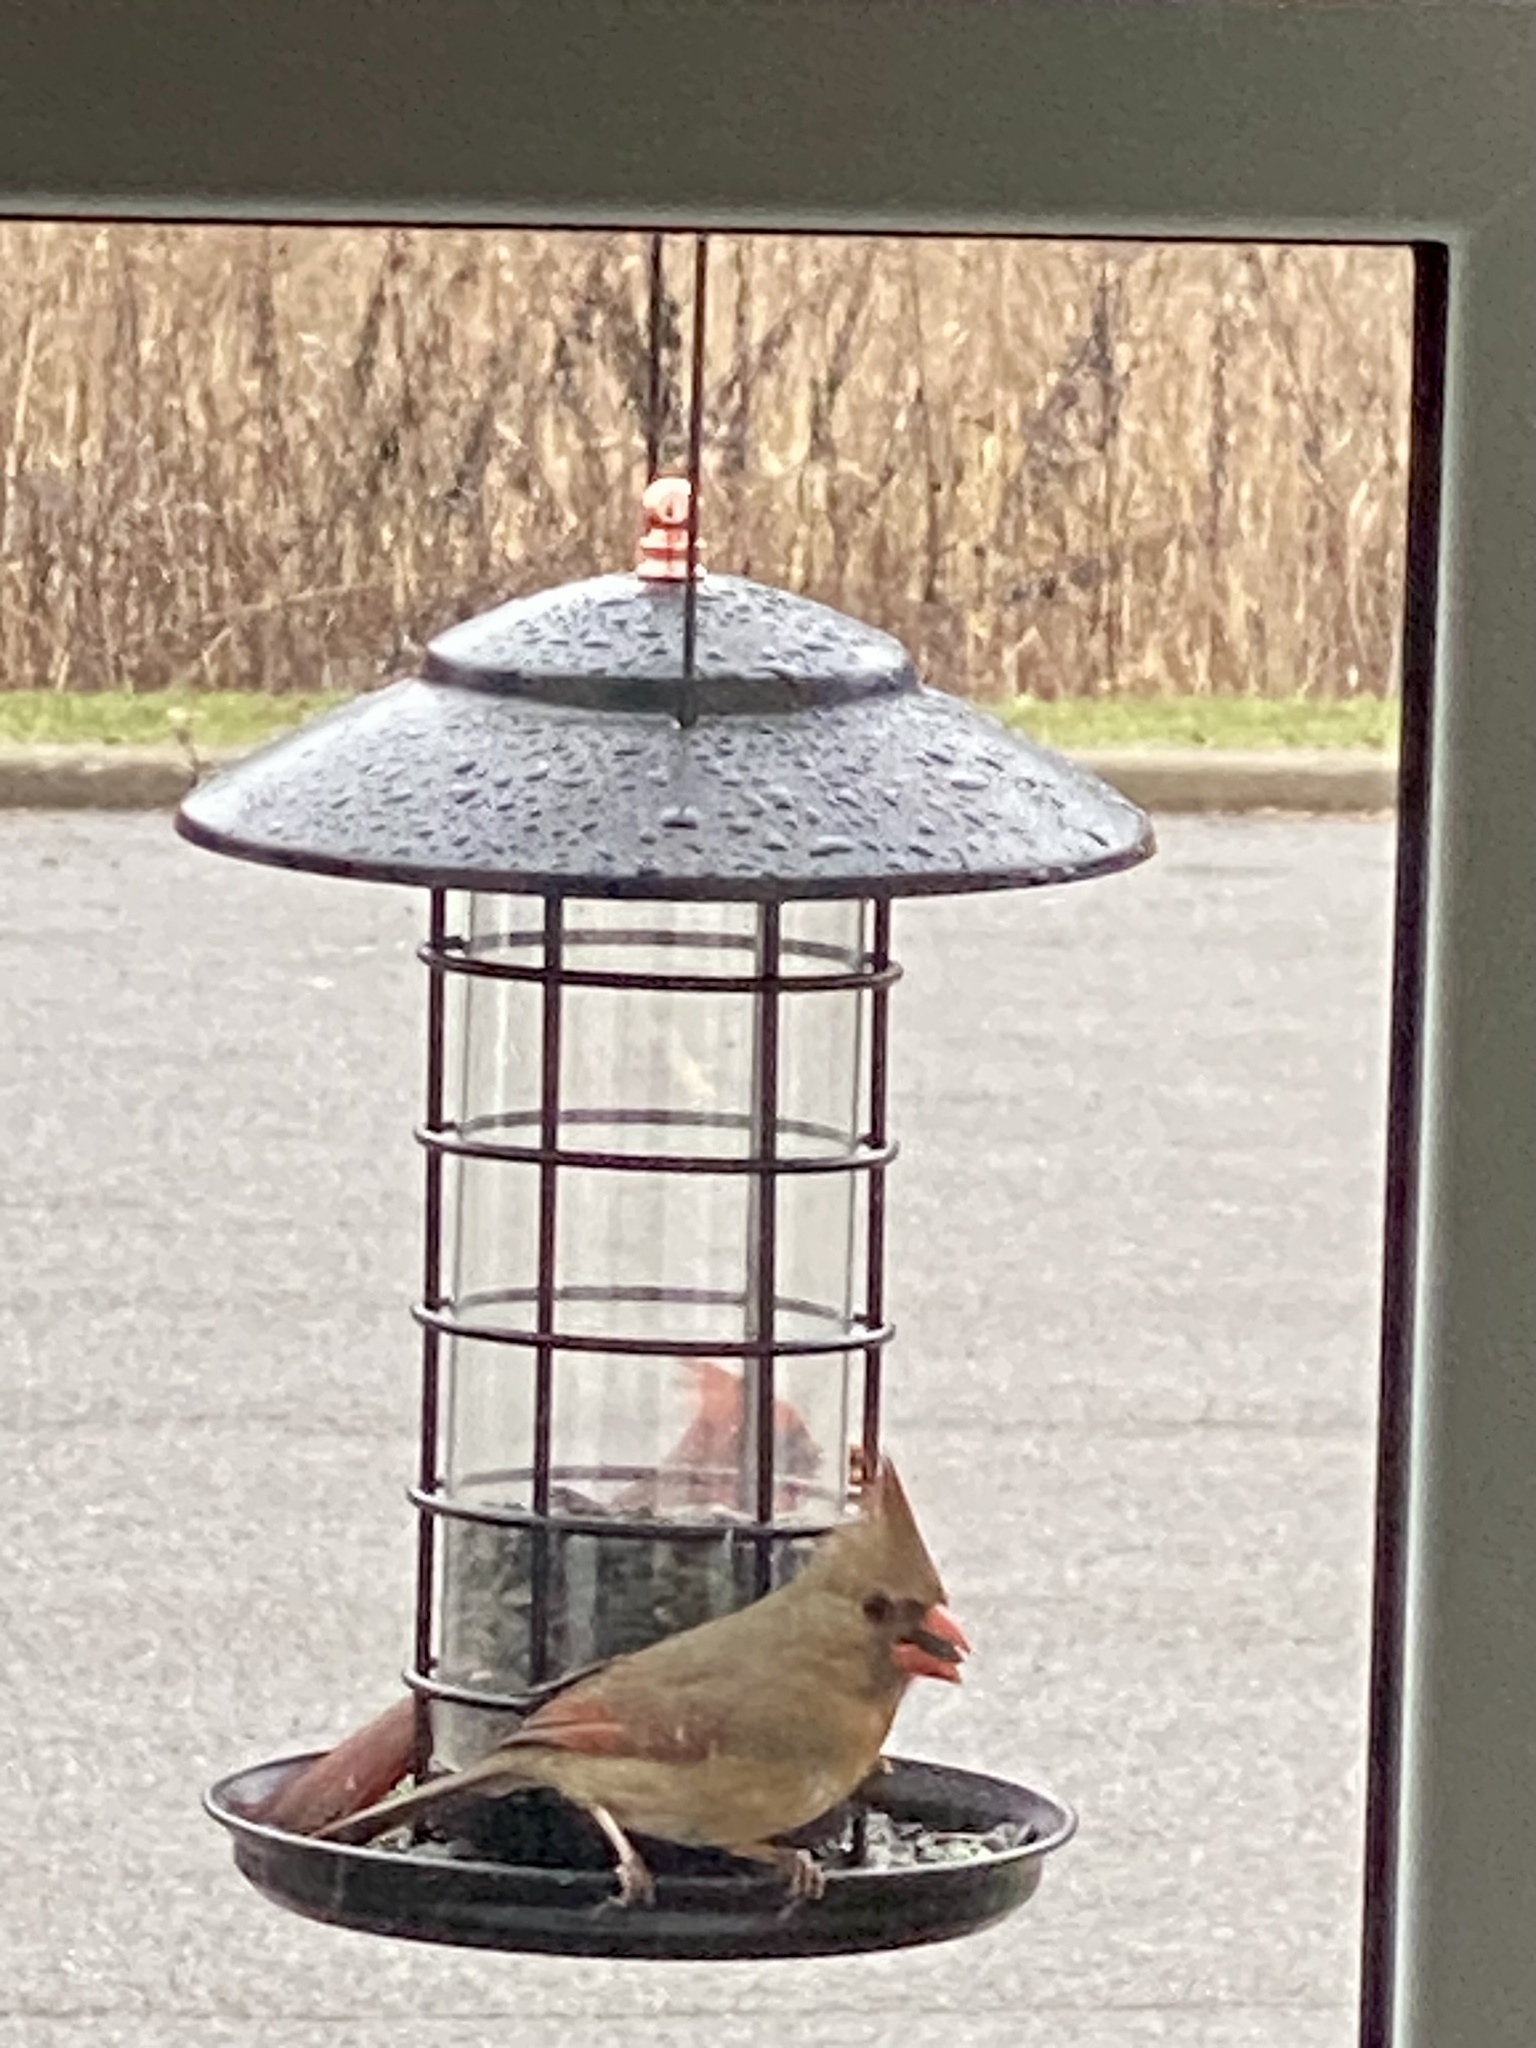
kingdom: Animalia
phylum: Chordata
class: Aves
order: Passeriformes
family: Cardinalidae
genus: Cardinalis
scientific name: Cardinalis cardinalis
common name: Northern cardinal
